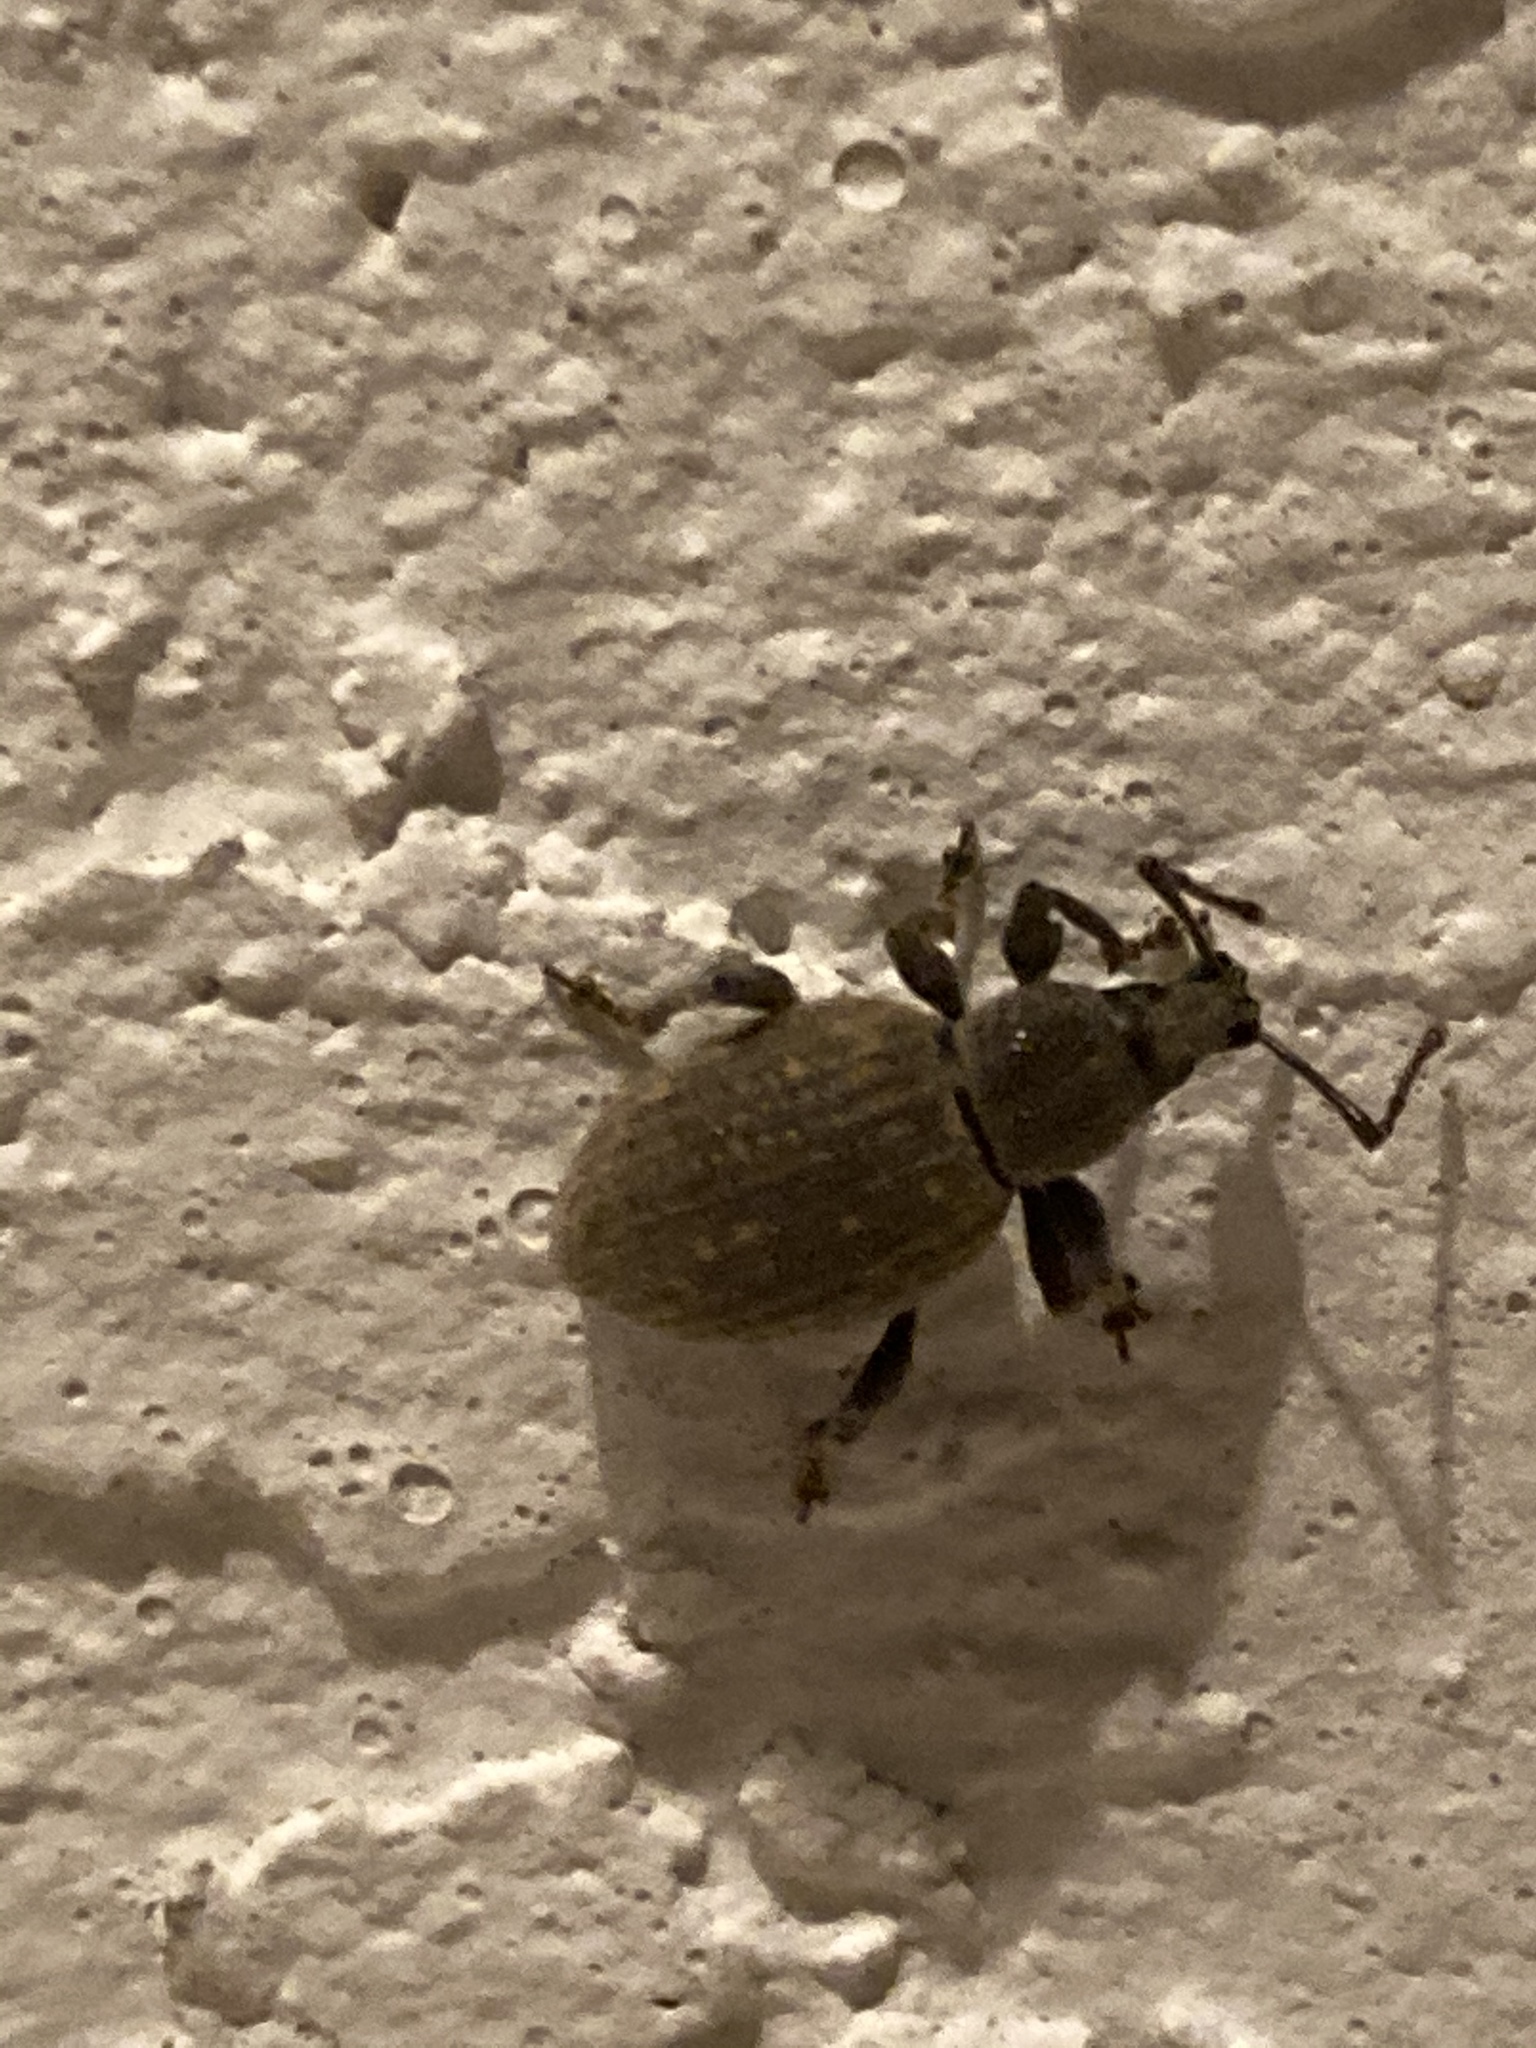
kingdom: Animalia
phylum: Arthropoda
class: Insecta
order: Coleoptera
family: Curculionidae
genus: Otiorhynchus
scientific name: Otiorhynchus sulcatus
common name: Black vine weevil
